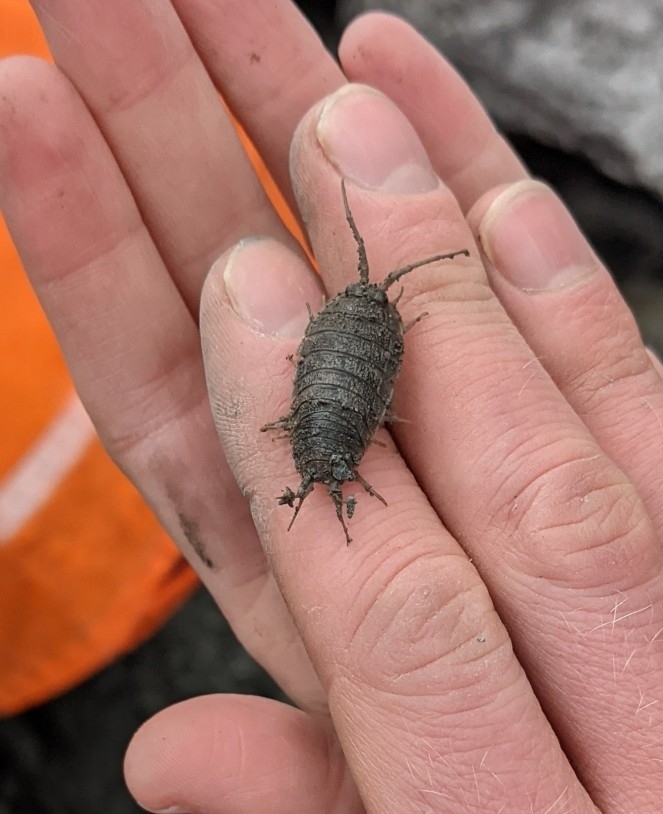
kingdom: Animalia
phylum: Arthropoda
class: Malacostraca
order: Isopoda
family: Ligiidae
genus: Ligia
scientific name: Ligia oceanica
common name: Sea slater
